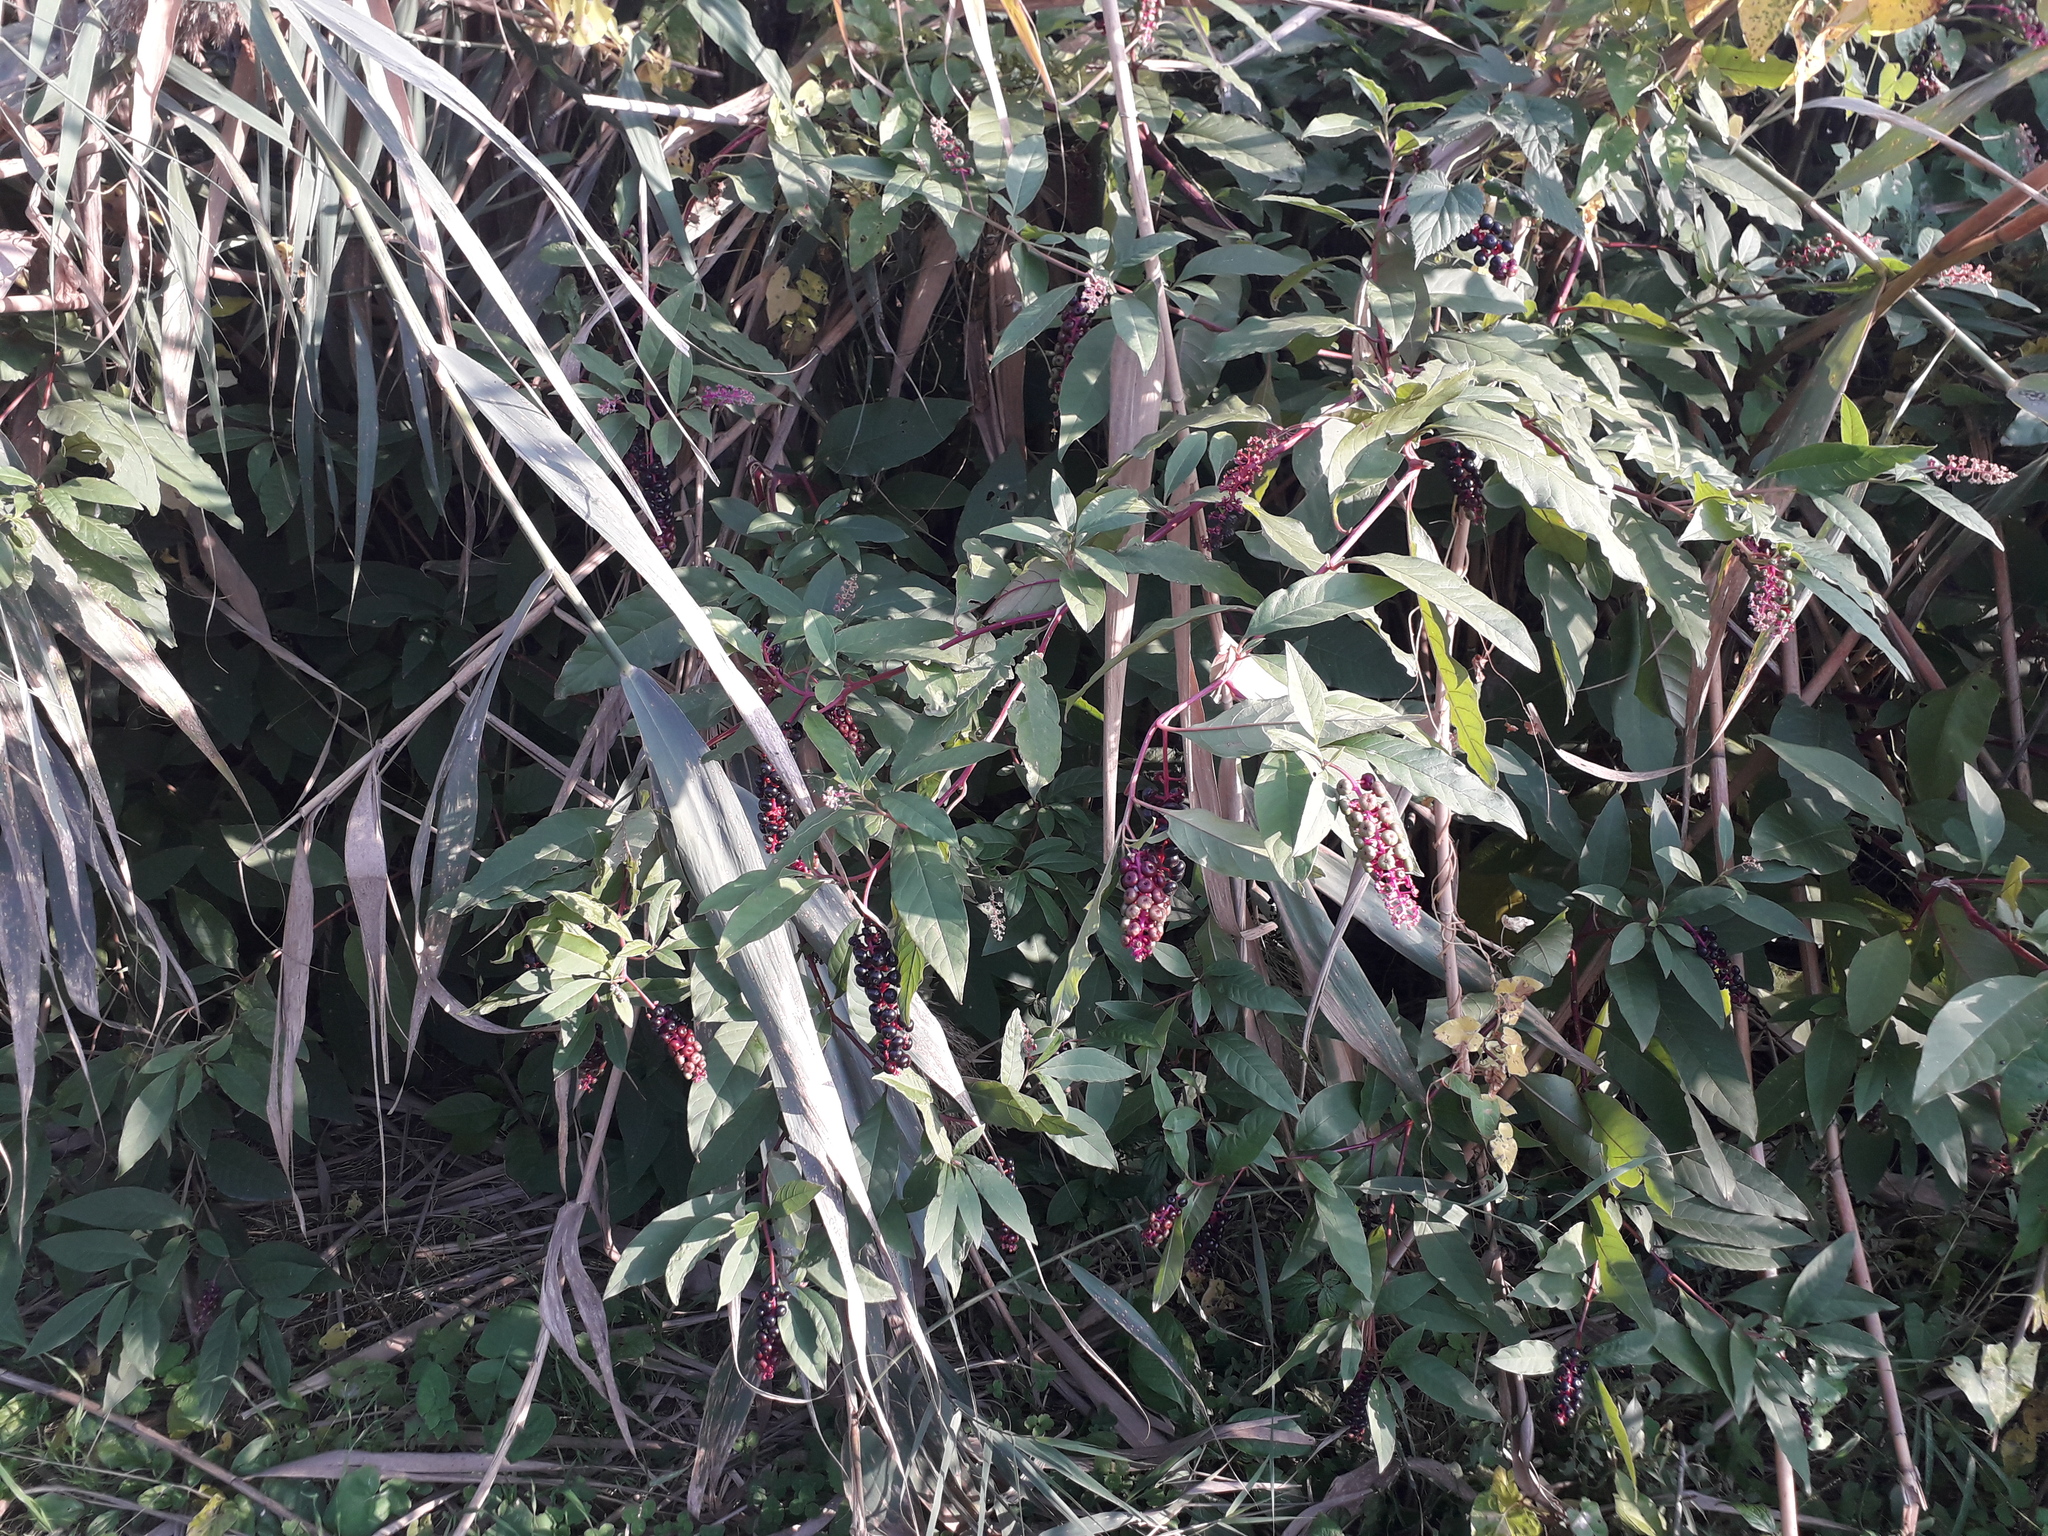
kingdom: Plantae
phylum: Tracheophyta
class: Magnoliopsida
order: Caryophyllales
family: Phytolaccaceae
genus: Phytolacca
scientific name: Phytolacca americana
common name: American pokeweed
